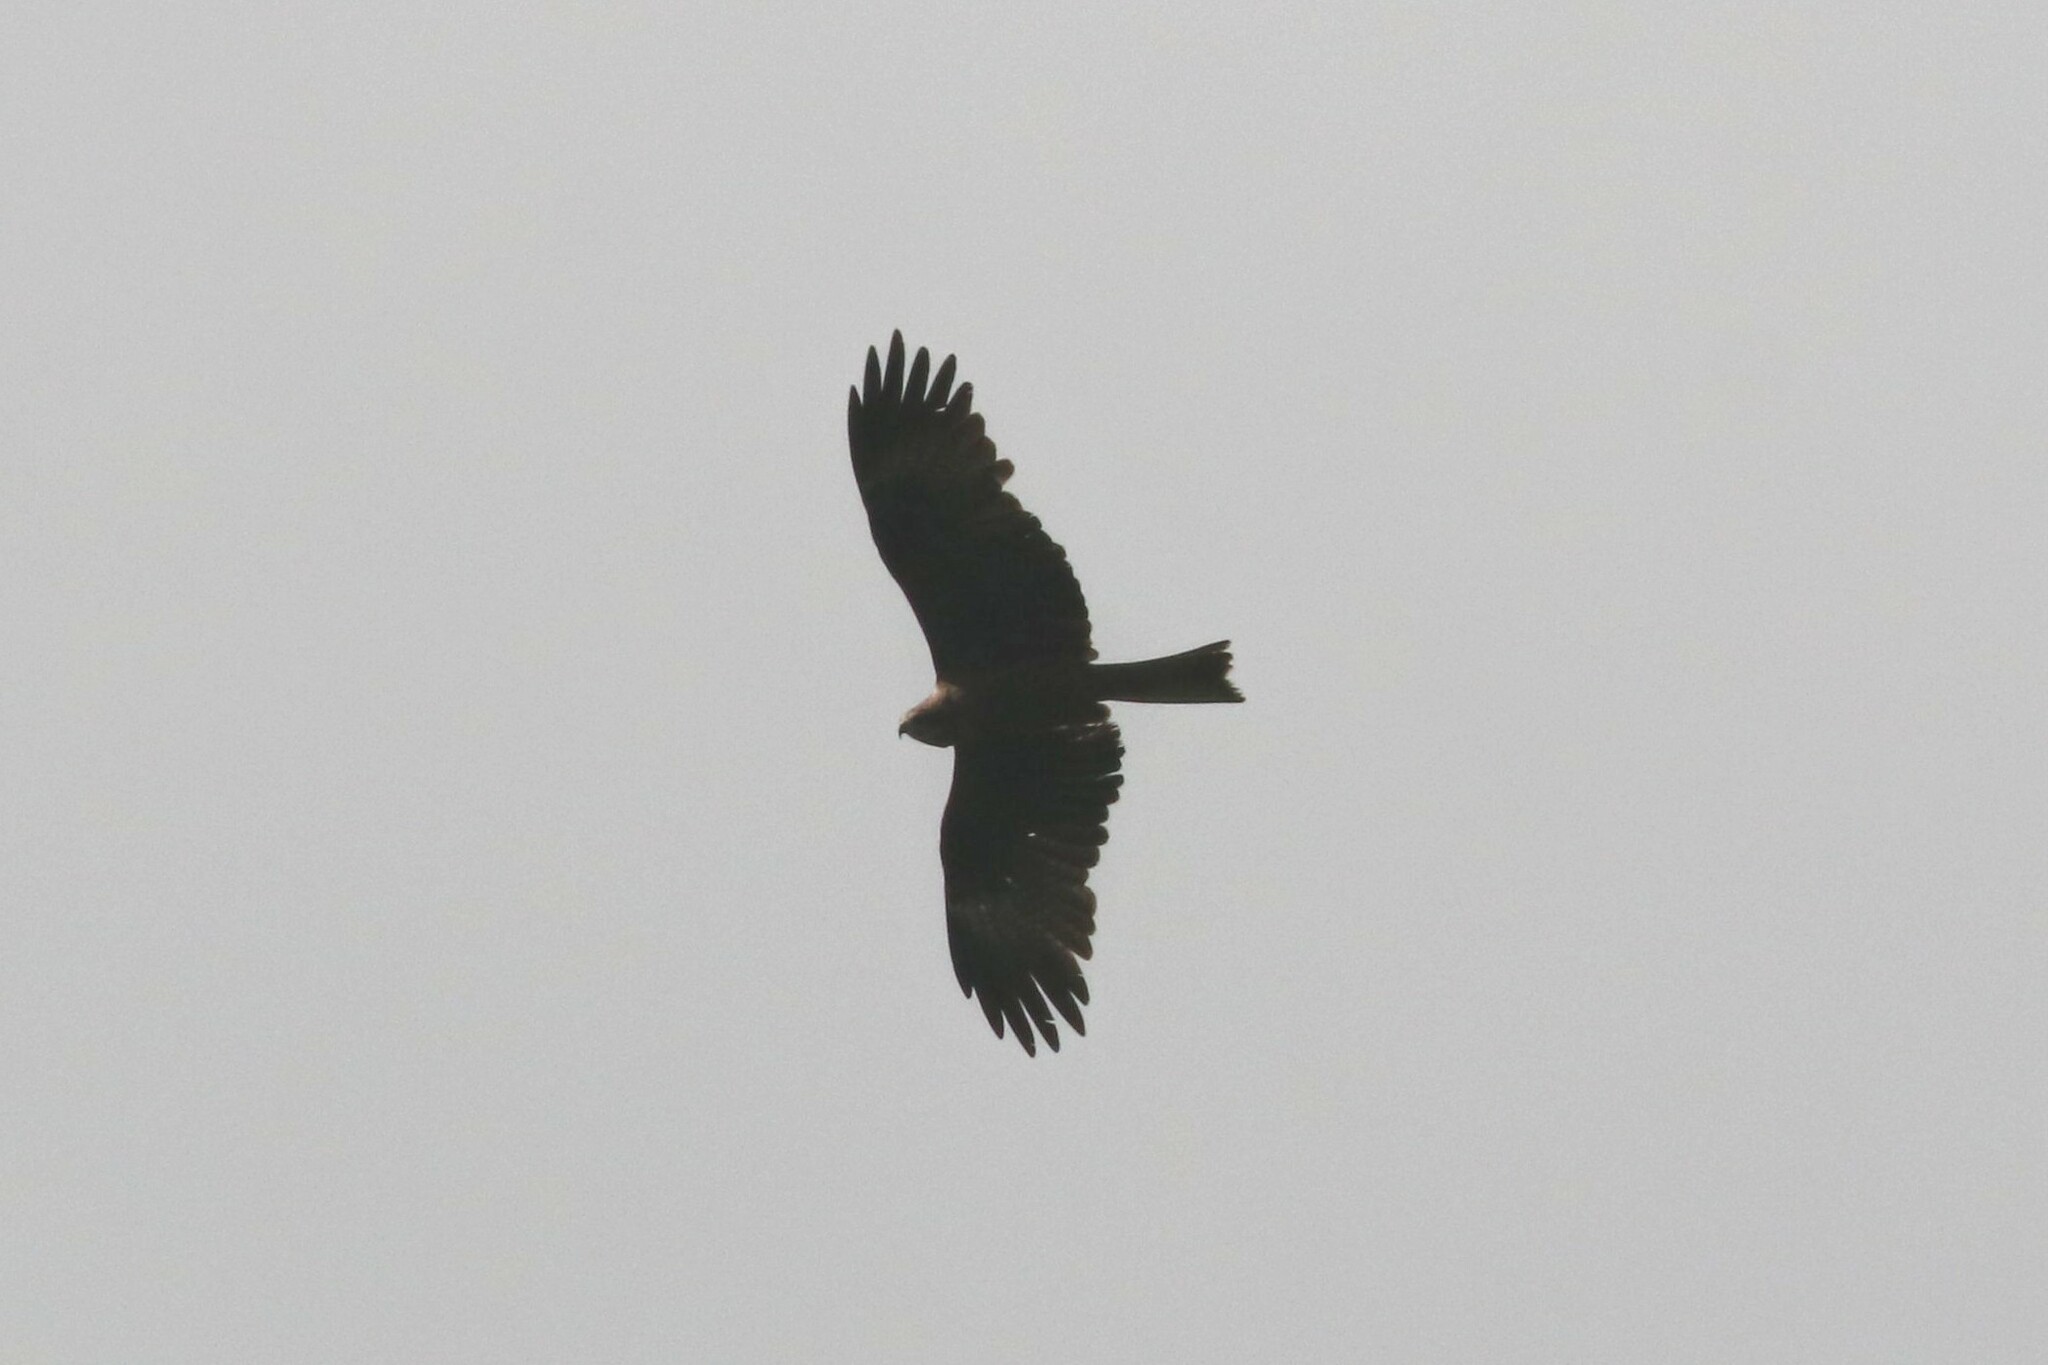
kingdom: Animalia
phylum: Chordata
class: Aves
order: Accipitriformes
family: Accipitridae
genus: Milvus
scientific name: Milvus migrans
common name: Black kite
